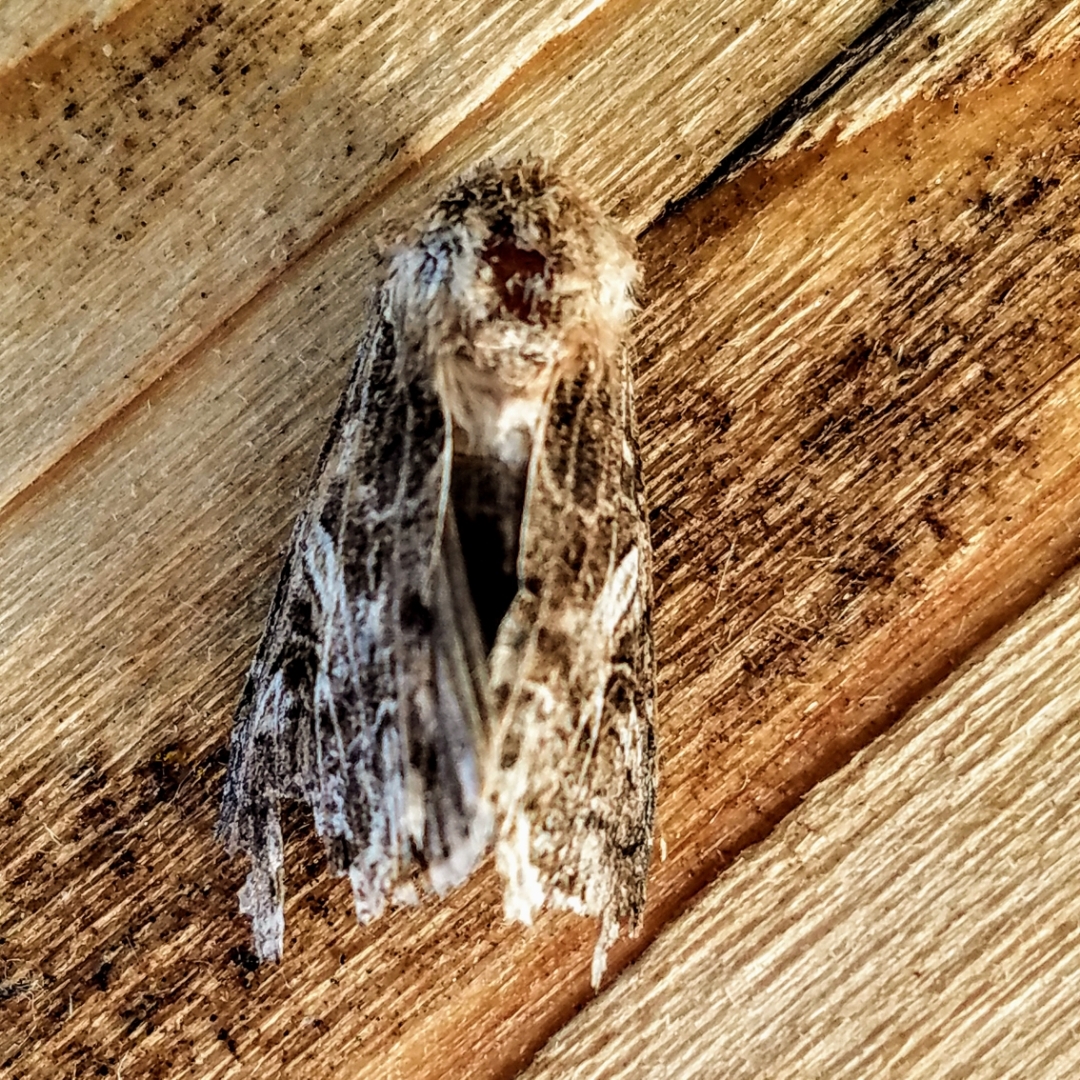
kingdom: Animalia
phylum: Arthropoda
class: Insecta
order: Lepidoptera
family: Noctuidae
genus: Spodoptera
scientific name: Spodoptera praefica
